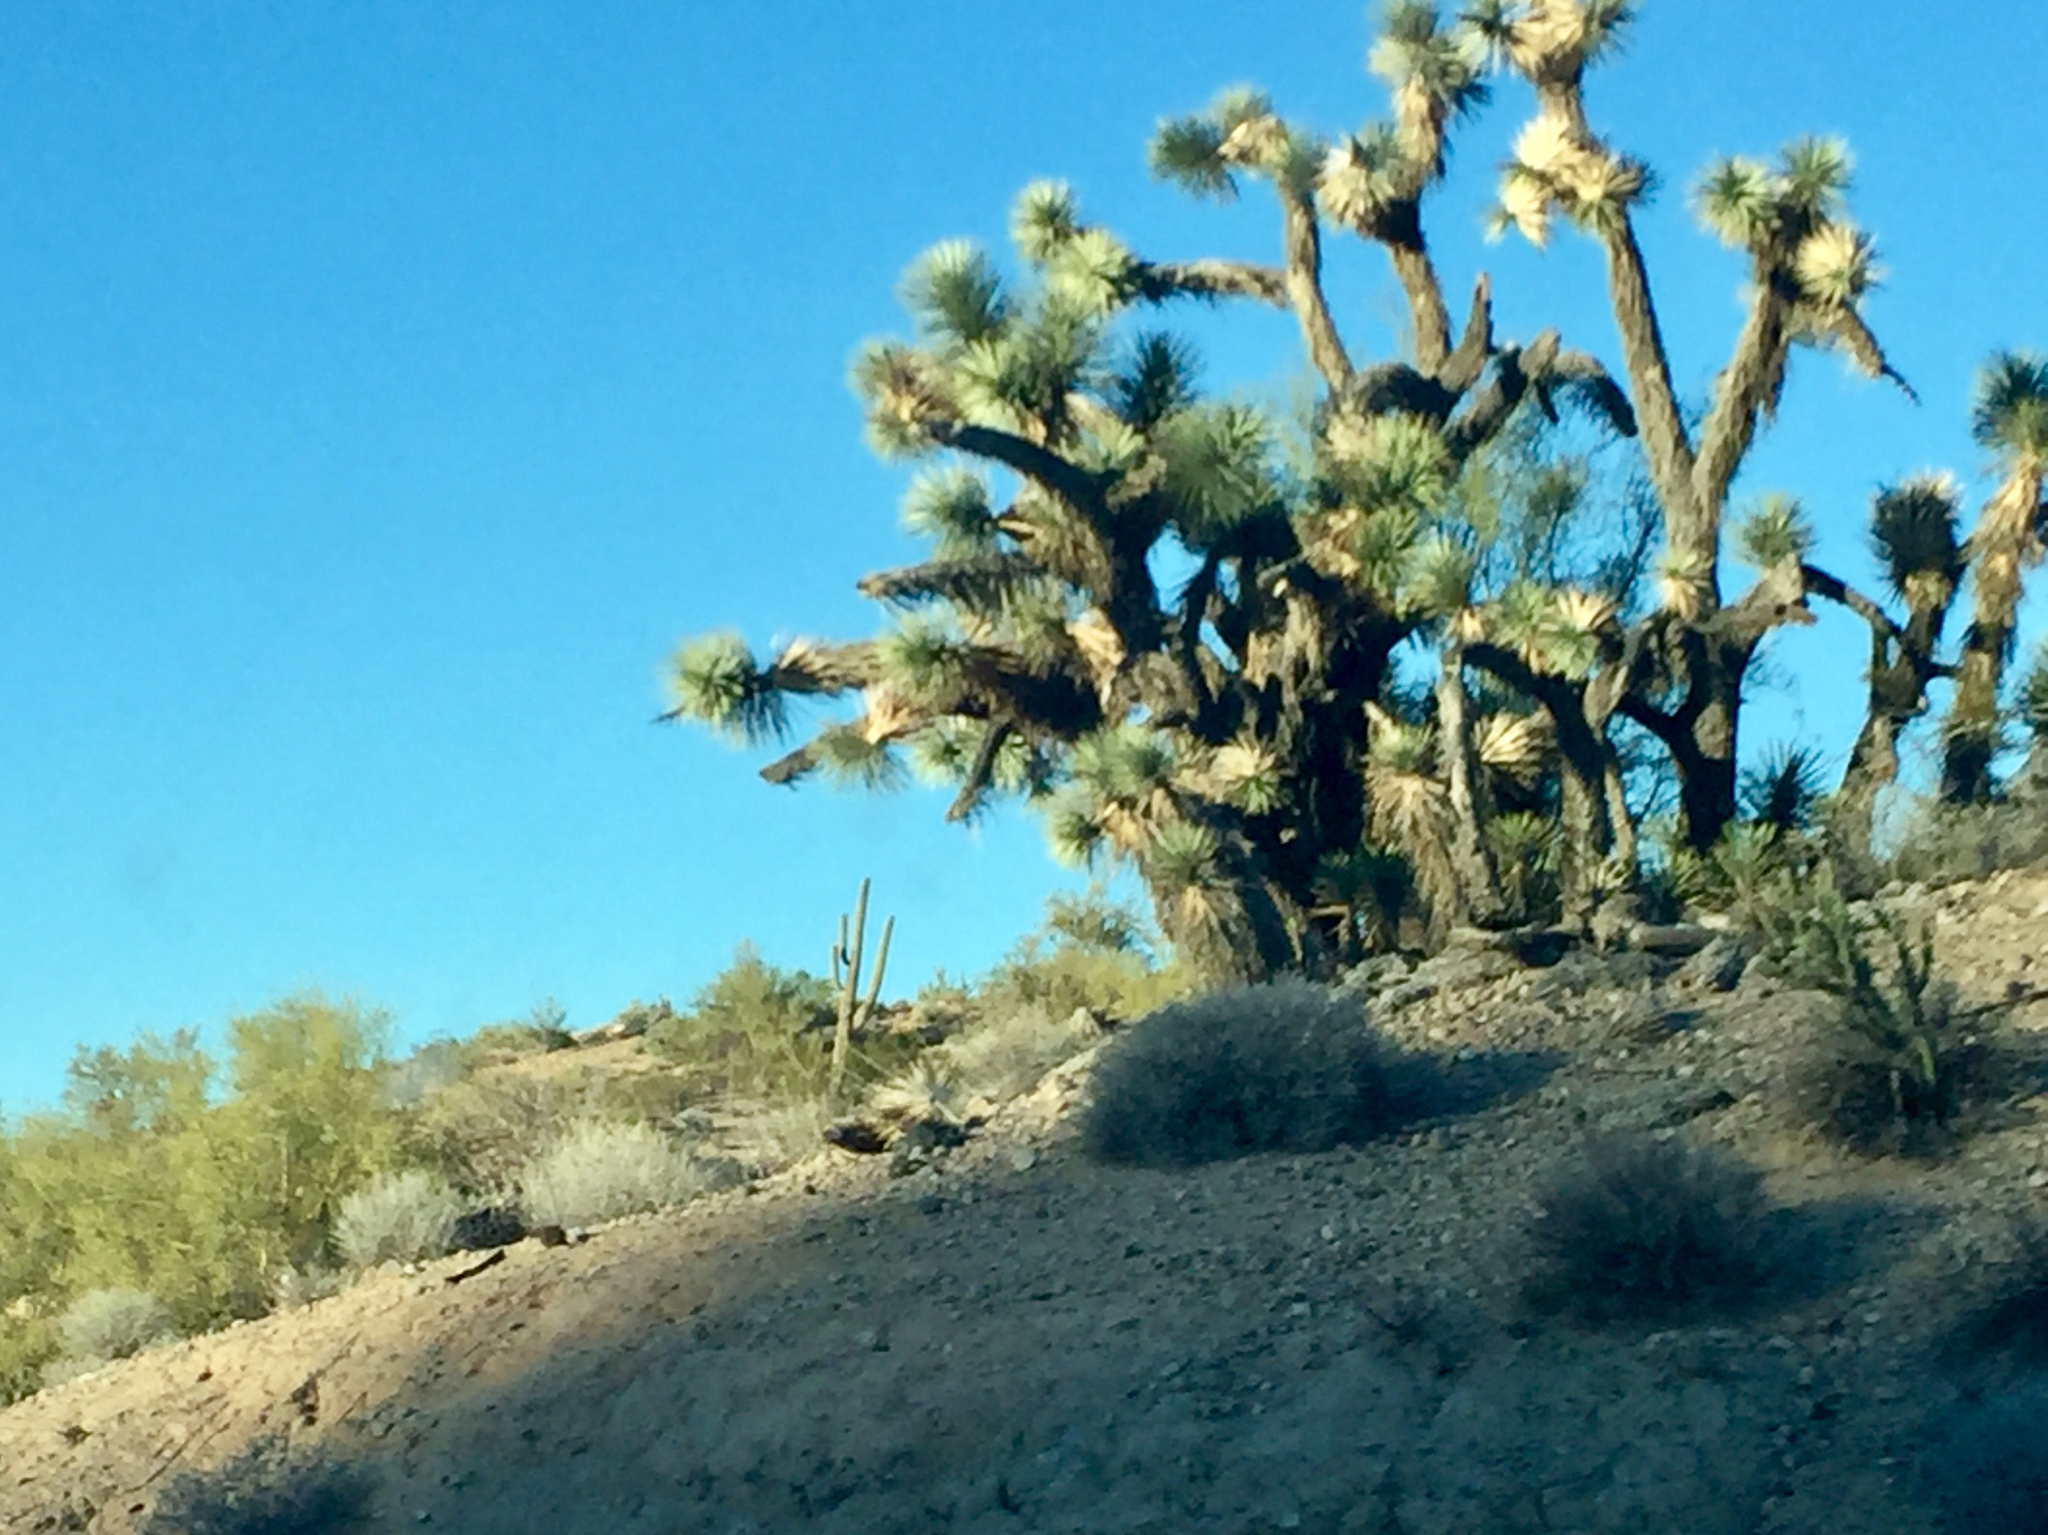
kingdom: Plantae
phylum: Tracheophyta
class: Liliopsida
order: Asparagales
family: Asparagaceae
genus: Yucca
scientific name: Yucca brevifolia
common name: Joshua tree
